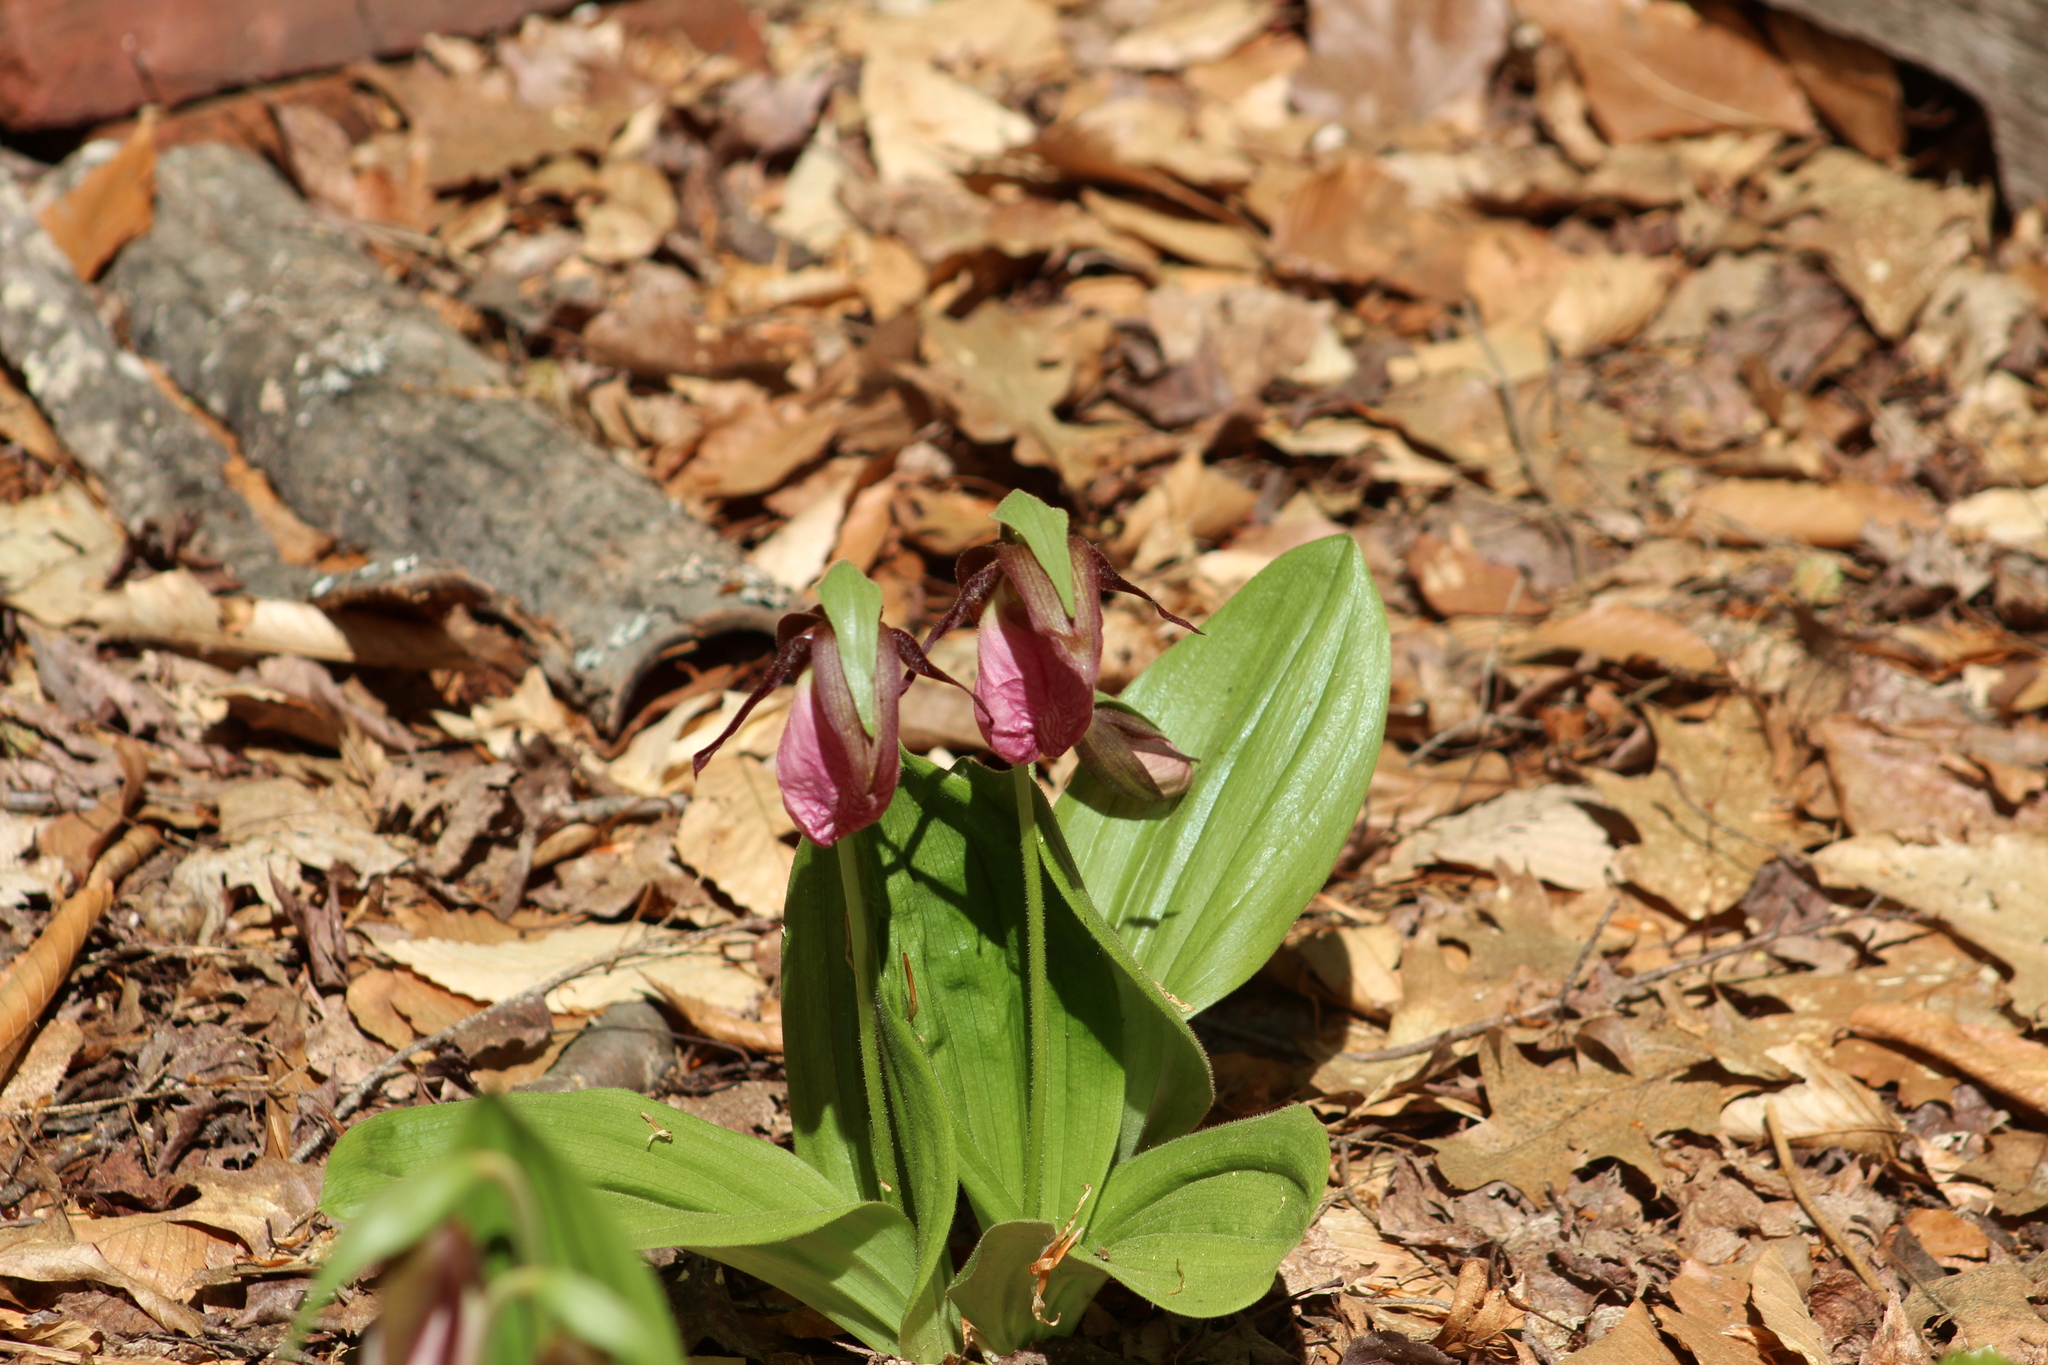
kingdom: Plantae
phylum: Tracheophyta
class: Liliopsida
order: Asparagales
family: Orchidaceae
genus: Cypripedium
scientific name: Cypripedium acaule
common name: Pink lady's-slipper
